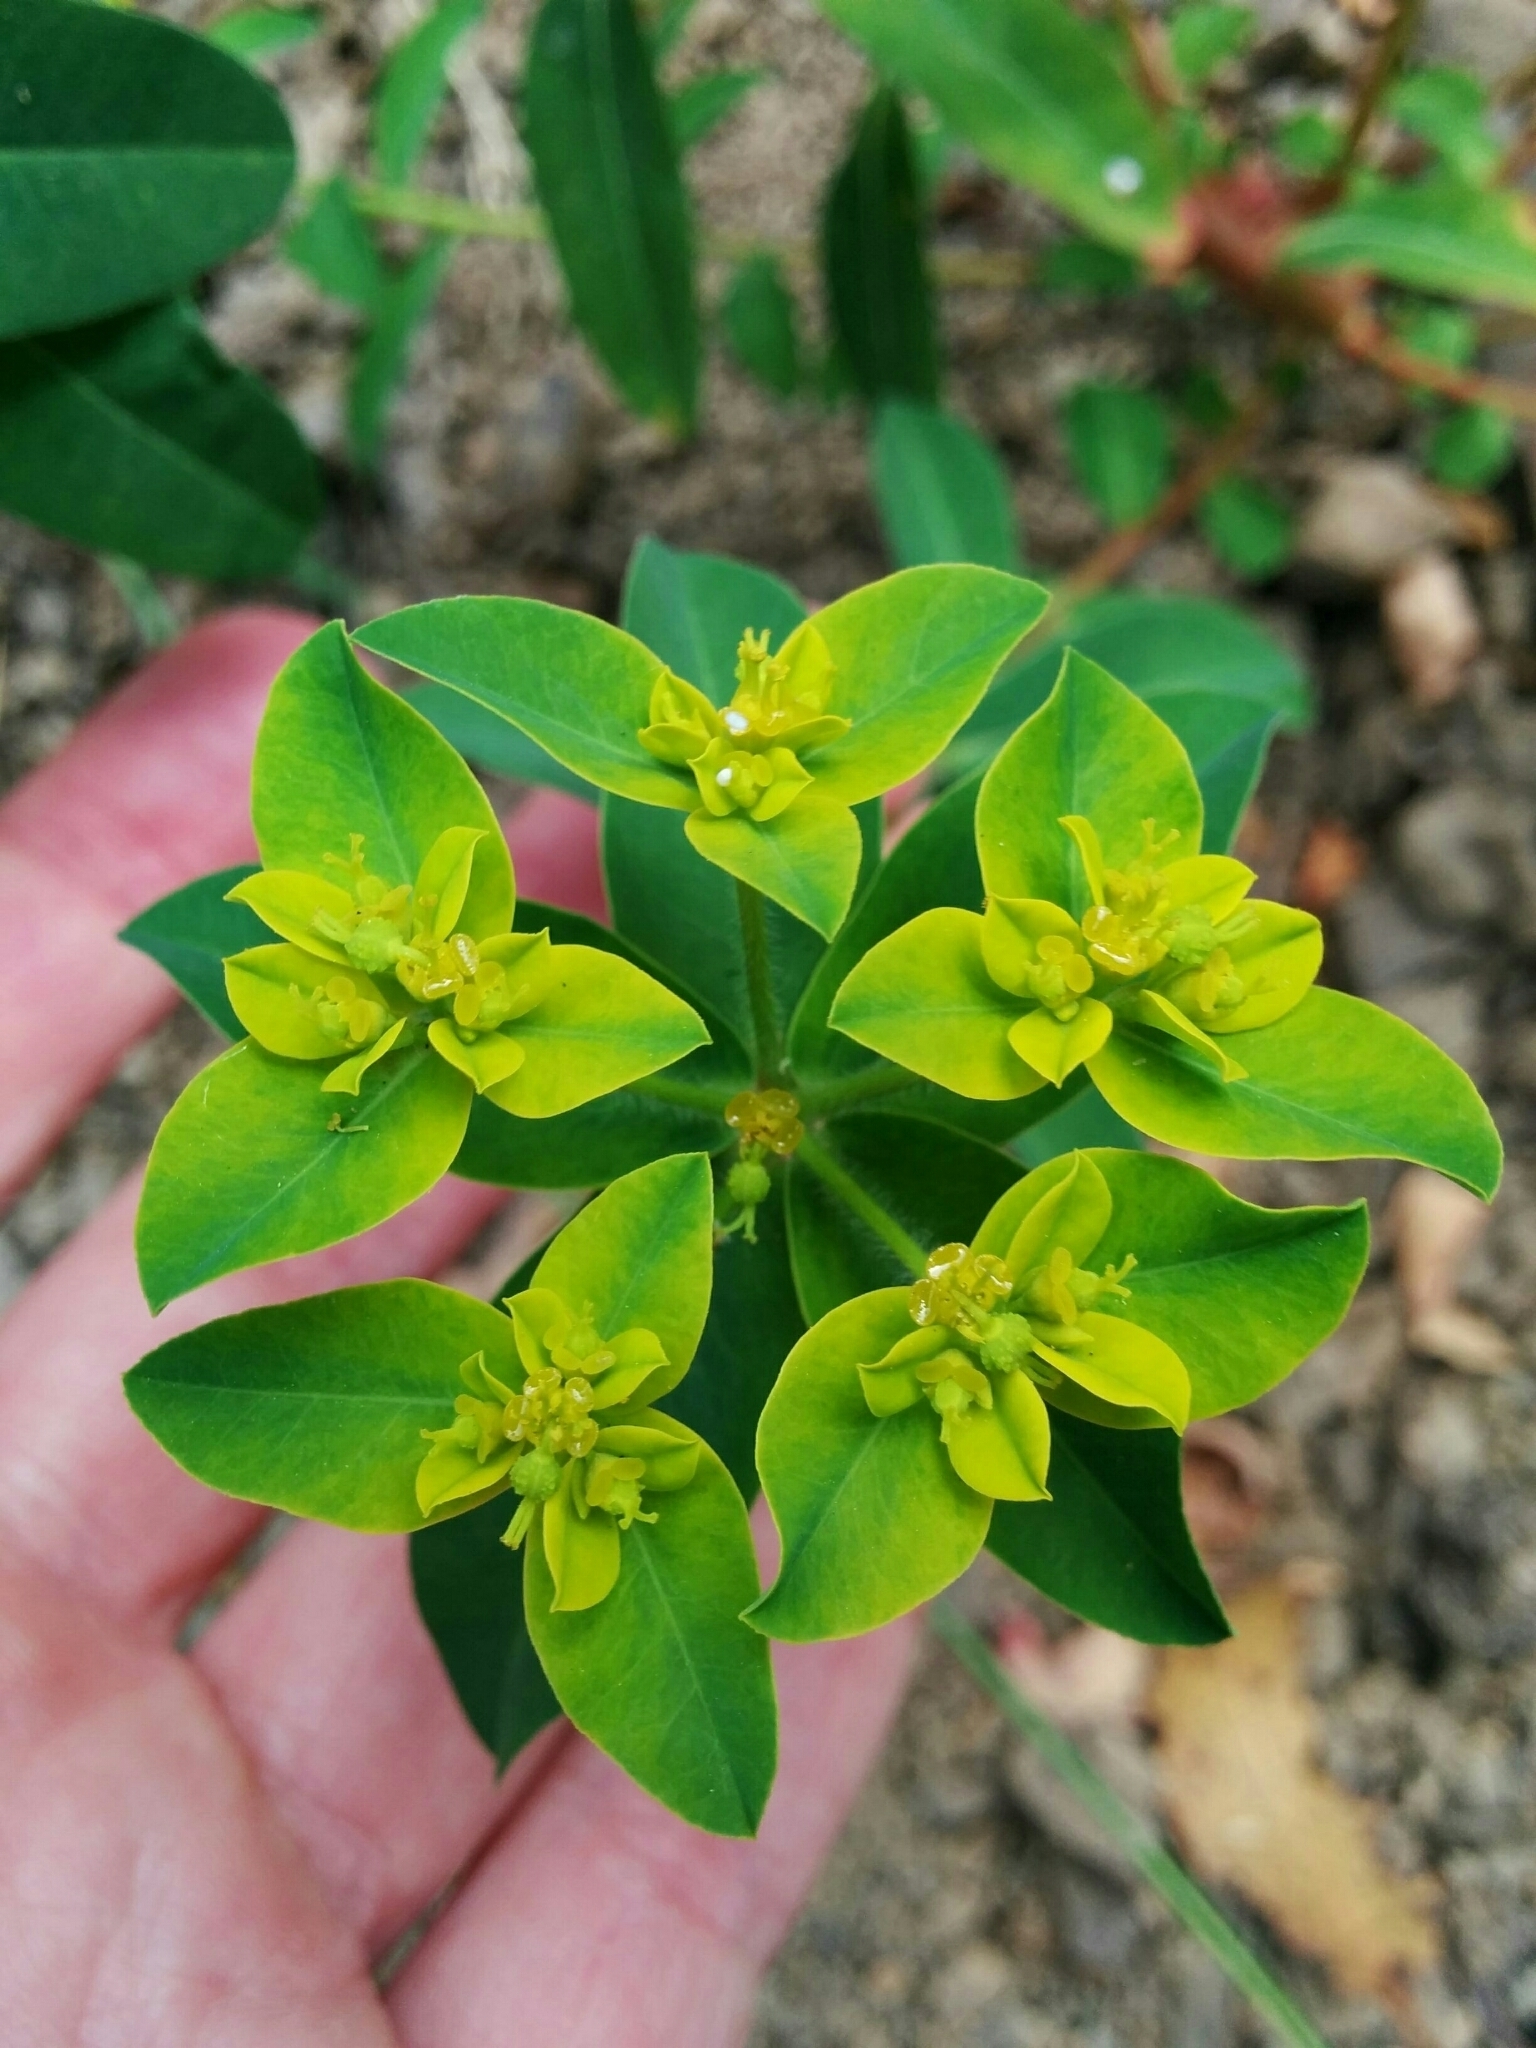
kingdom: Plantae
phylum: Tracheophyta
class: Magnoliopsida
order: Malpighiales
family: Euphorbiaceae
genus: Euphorbia
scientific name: Euphorbia oblongata
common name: Balkan spurge
